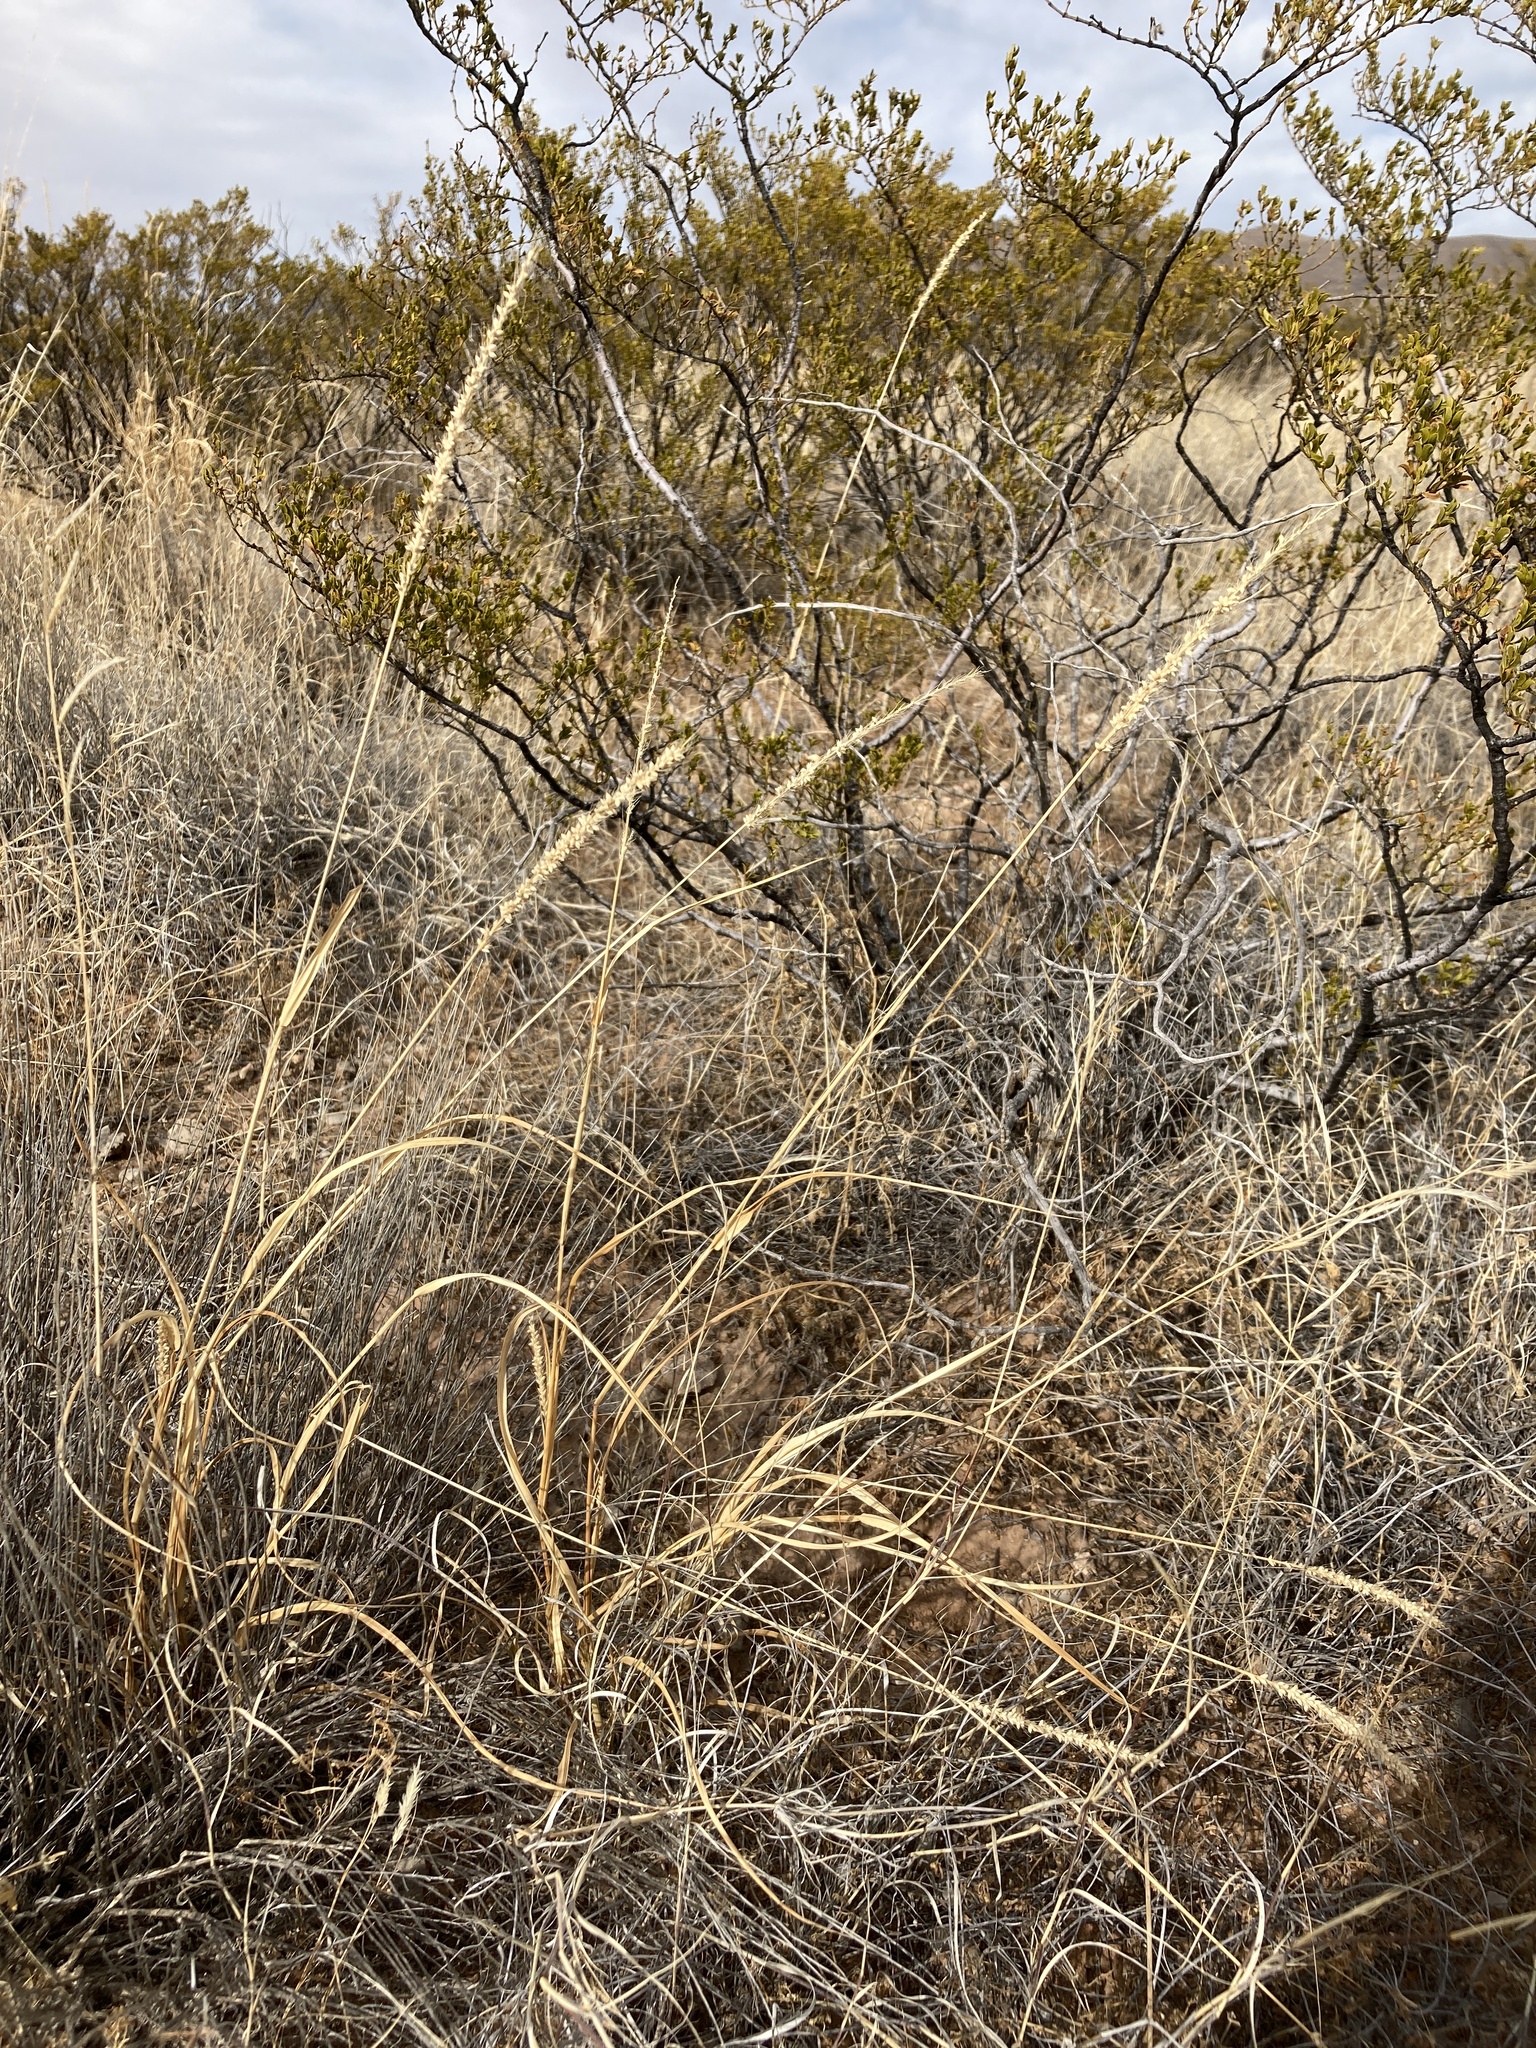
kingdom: Plantae
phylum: Tracheophyta
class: Liliopsida
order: Poales
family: Poaceae
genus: Setaria
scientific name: Setaria leucopila
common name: Plains bristle grass
